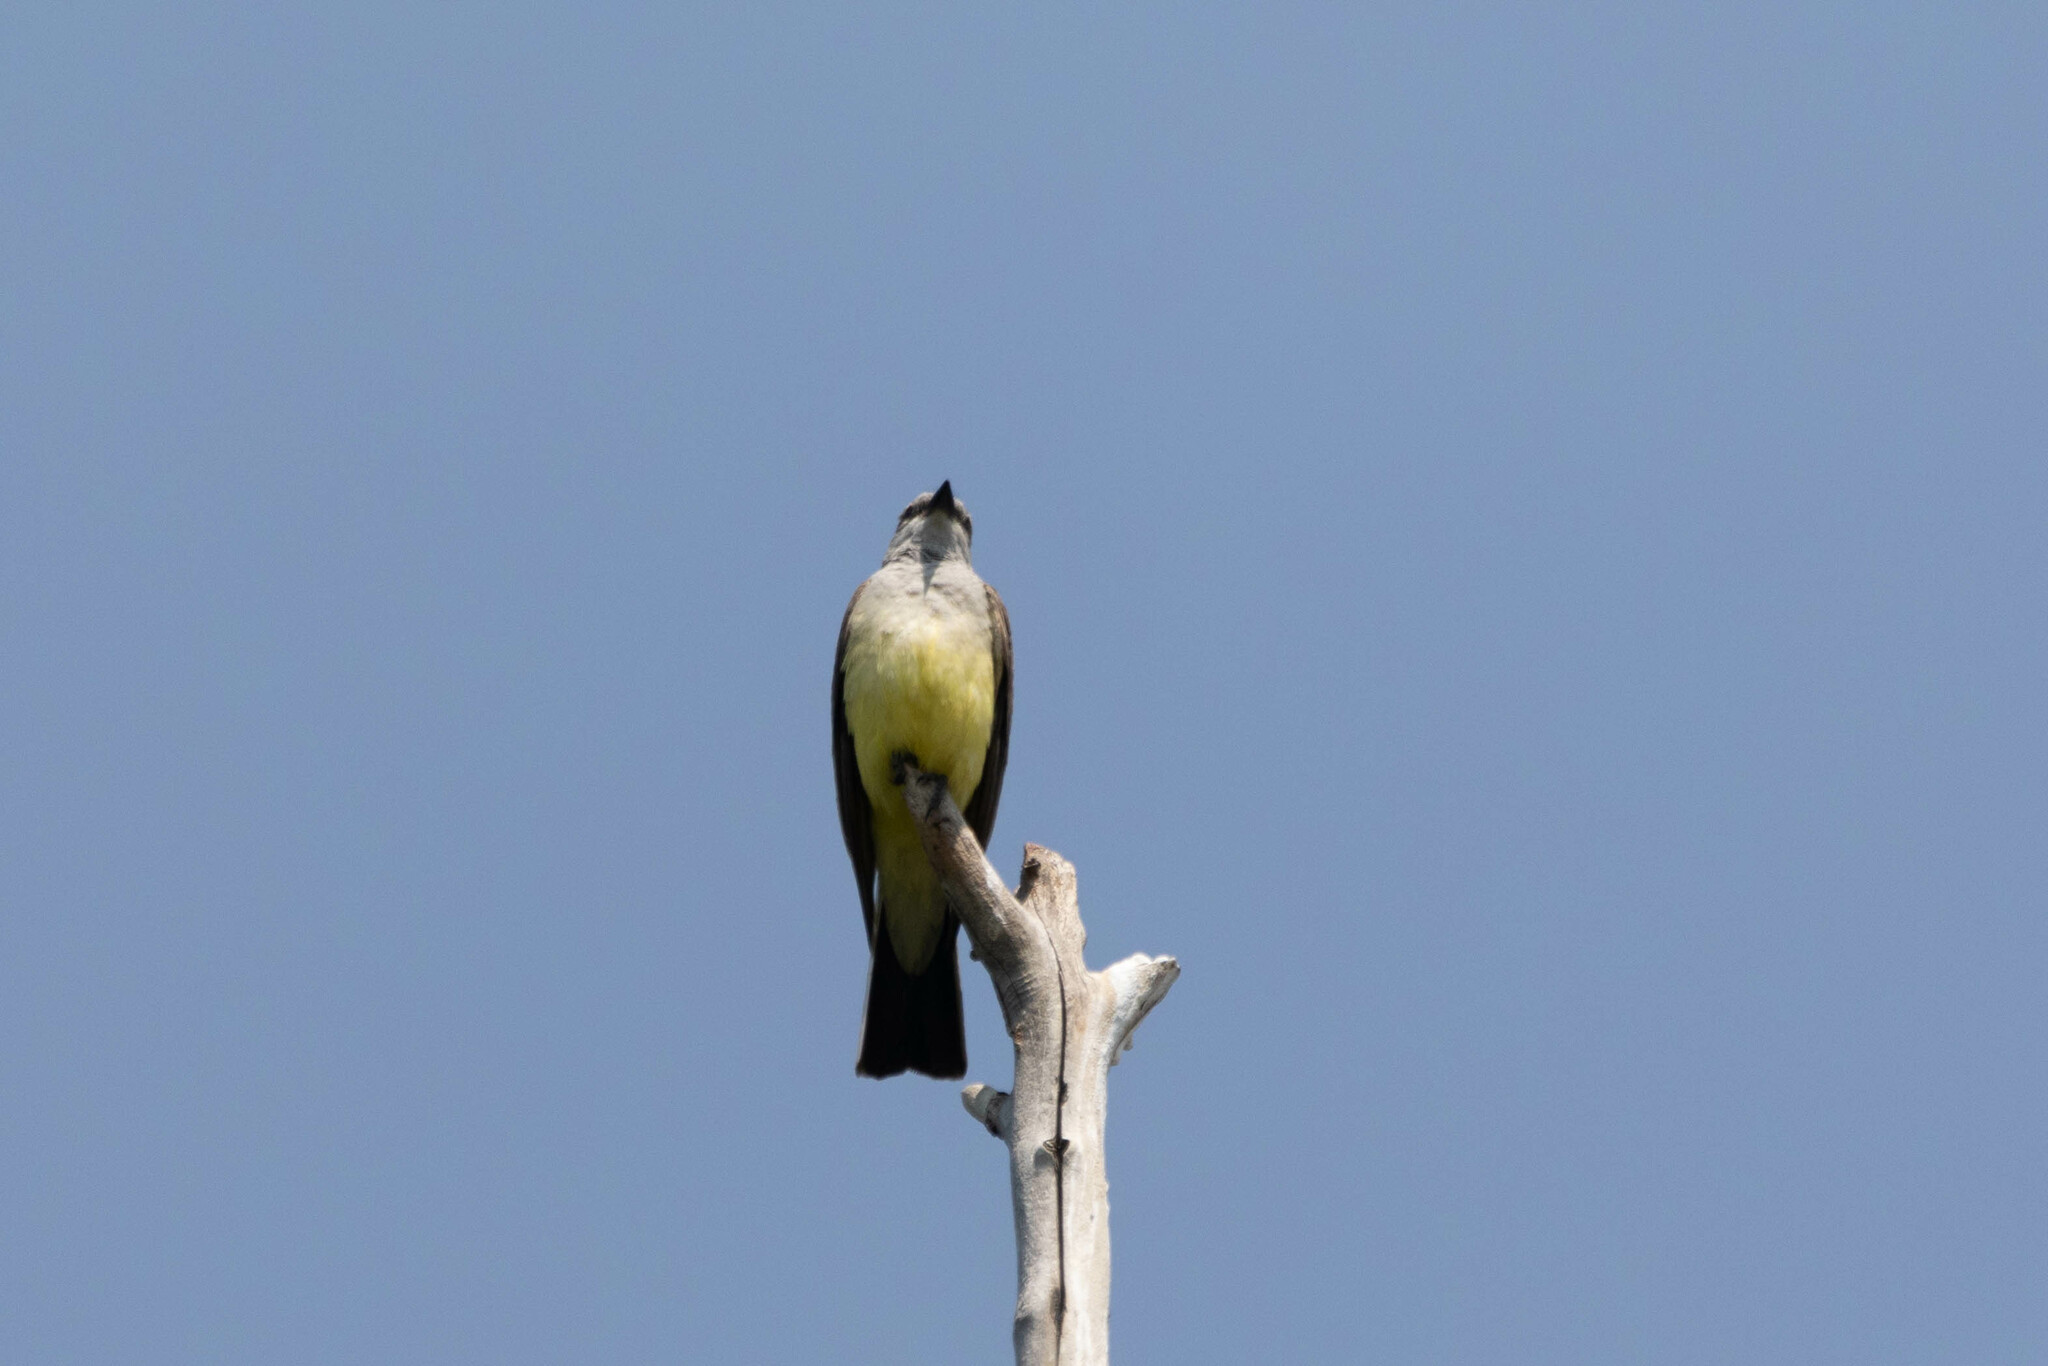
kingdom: Animalia
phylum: Chordata
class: Aves
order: Passeriformes
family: Tyrannidae
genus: Tyrannus
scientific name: Tyrannus verticalis
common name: Western kingbird
